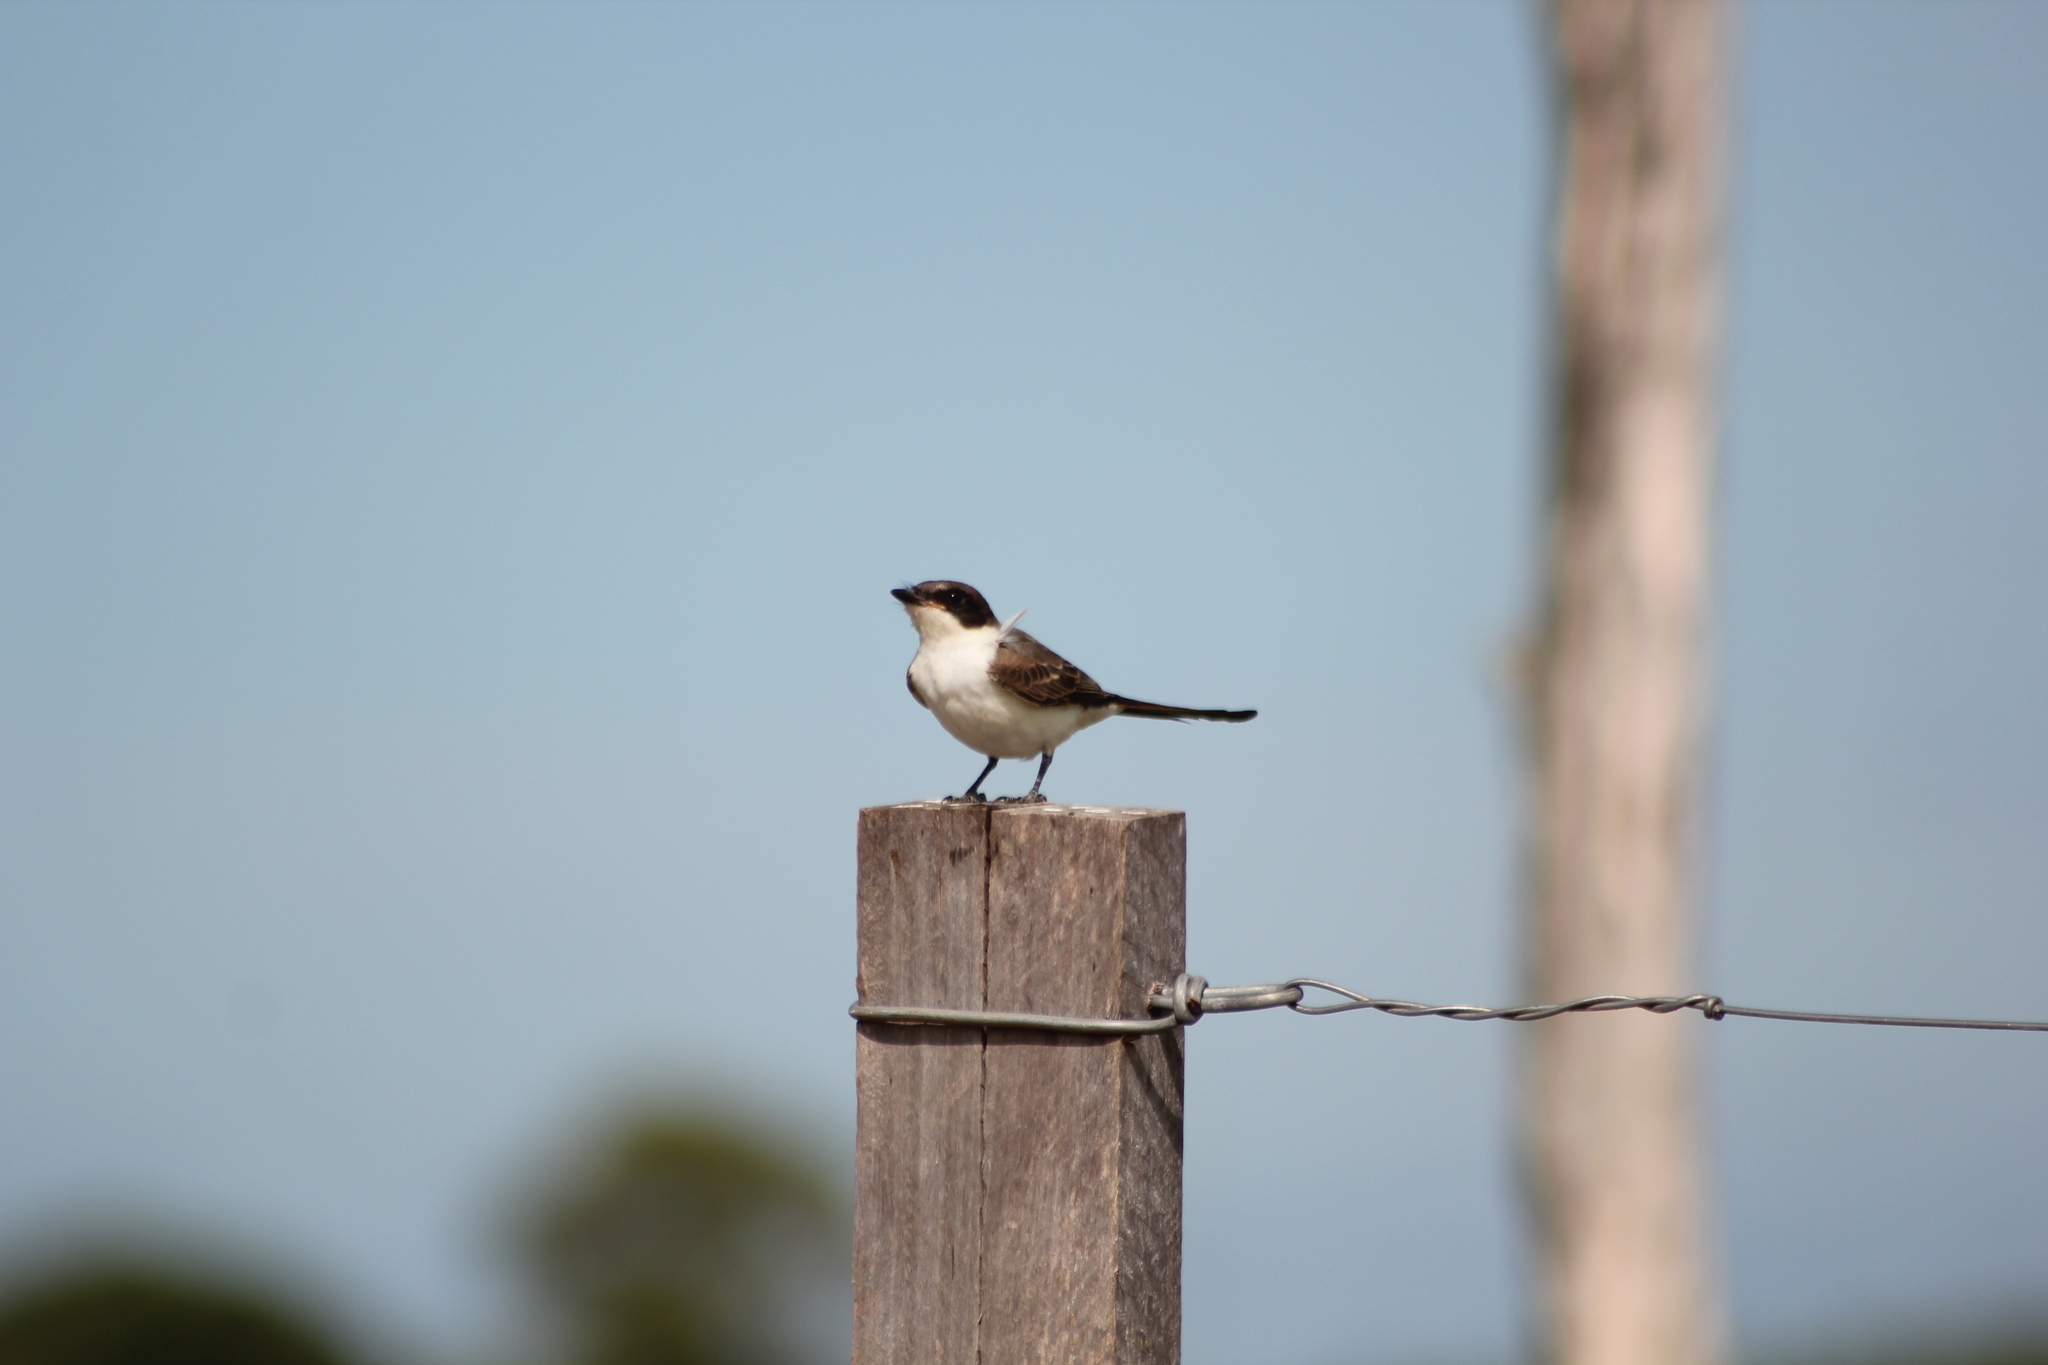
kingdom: Animalia
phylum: Chordata
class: Aves
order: Passeriformes
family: Tyrannidae
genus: Tyrannus
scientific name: Tyrannus savana
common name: Fork-tailed flycatcher
